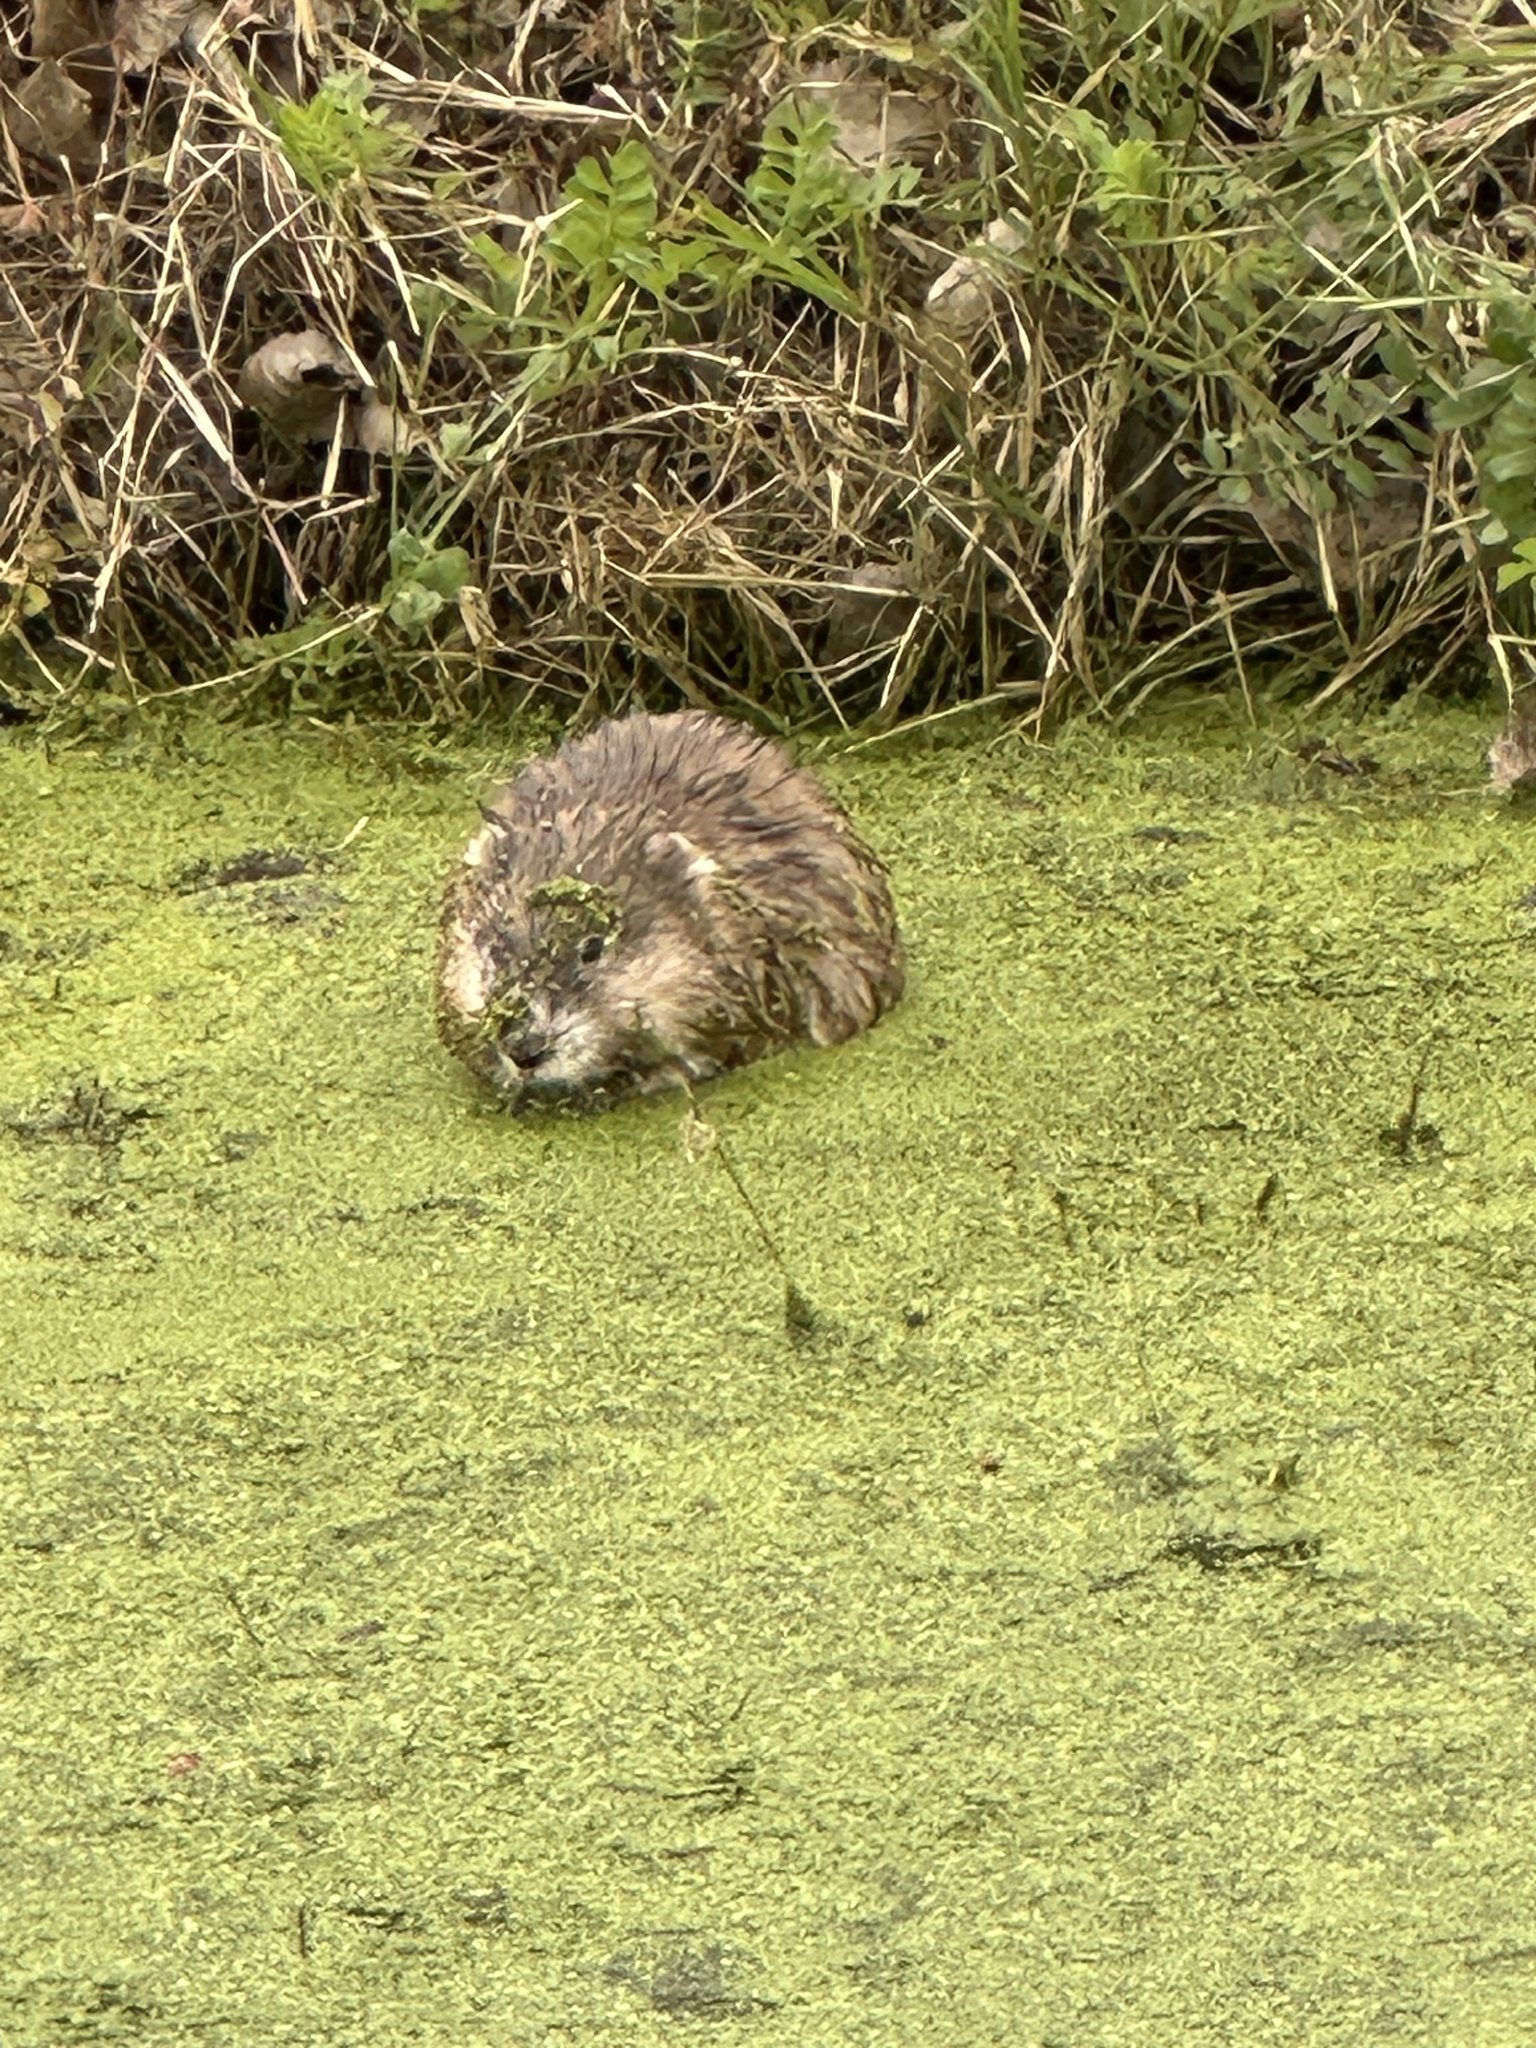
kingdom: Animalia
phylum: Chordata
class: Mammalia
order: Rodentia
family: Cricetidae
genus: Ondatra
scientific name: Ondatra zibethicus
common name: Muskrat
